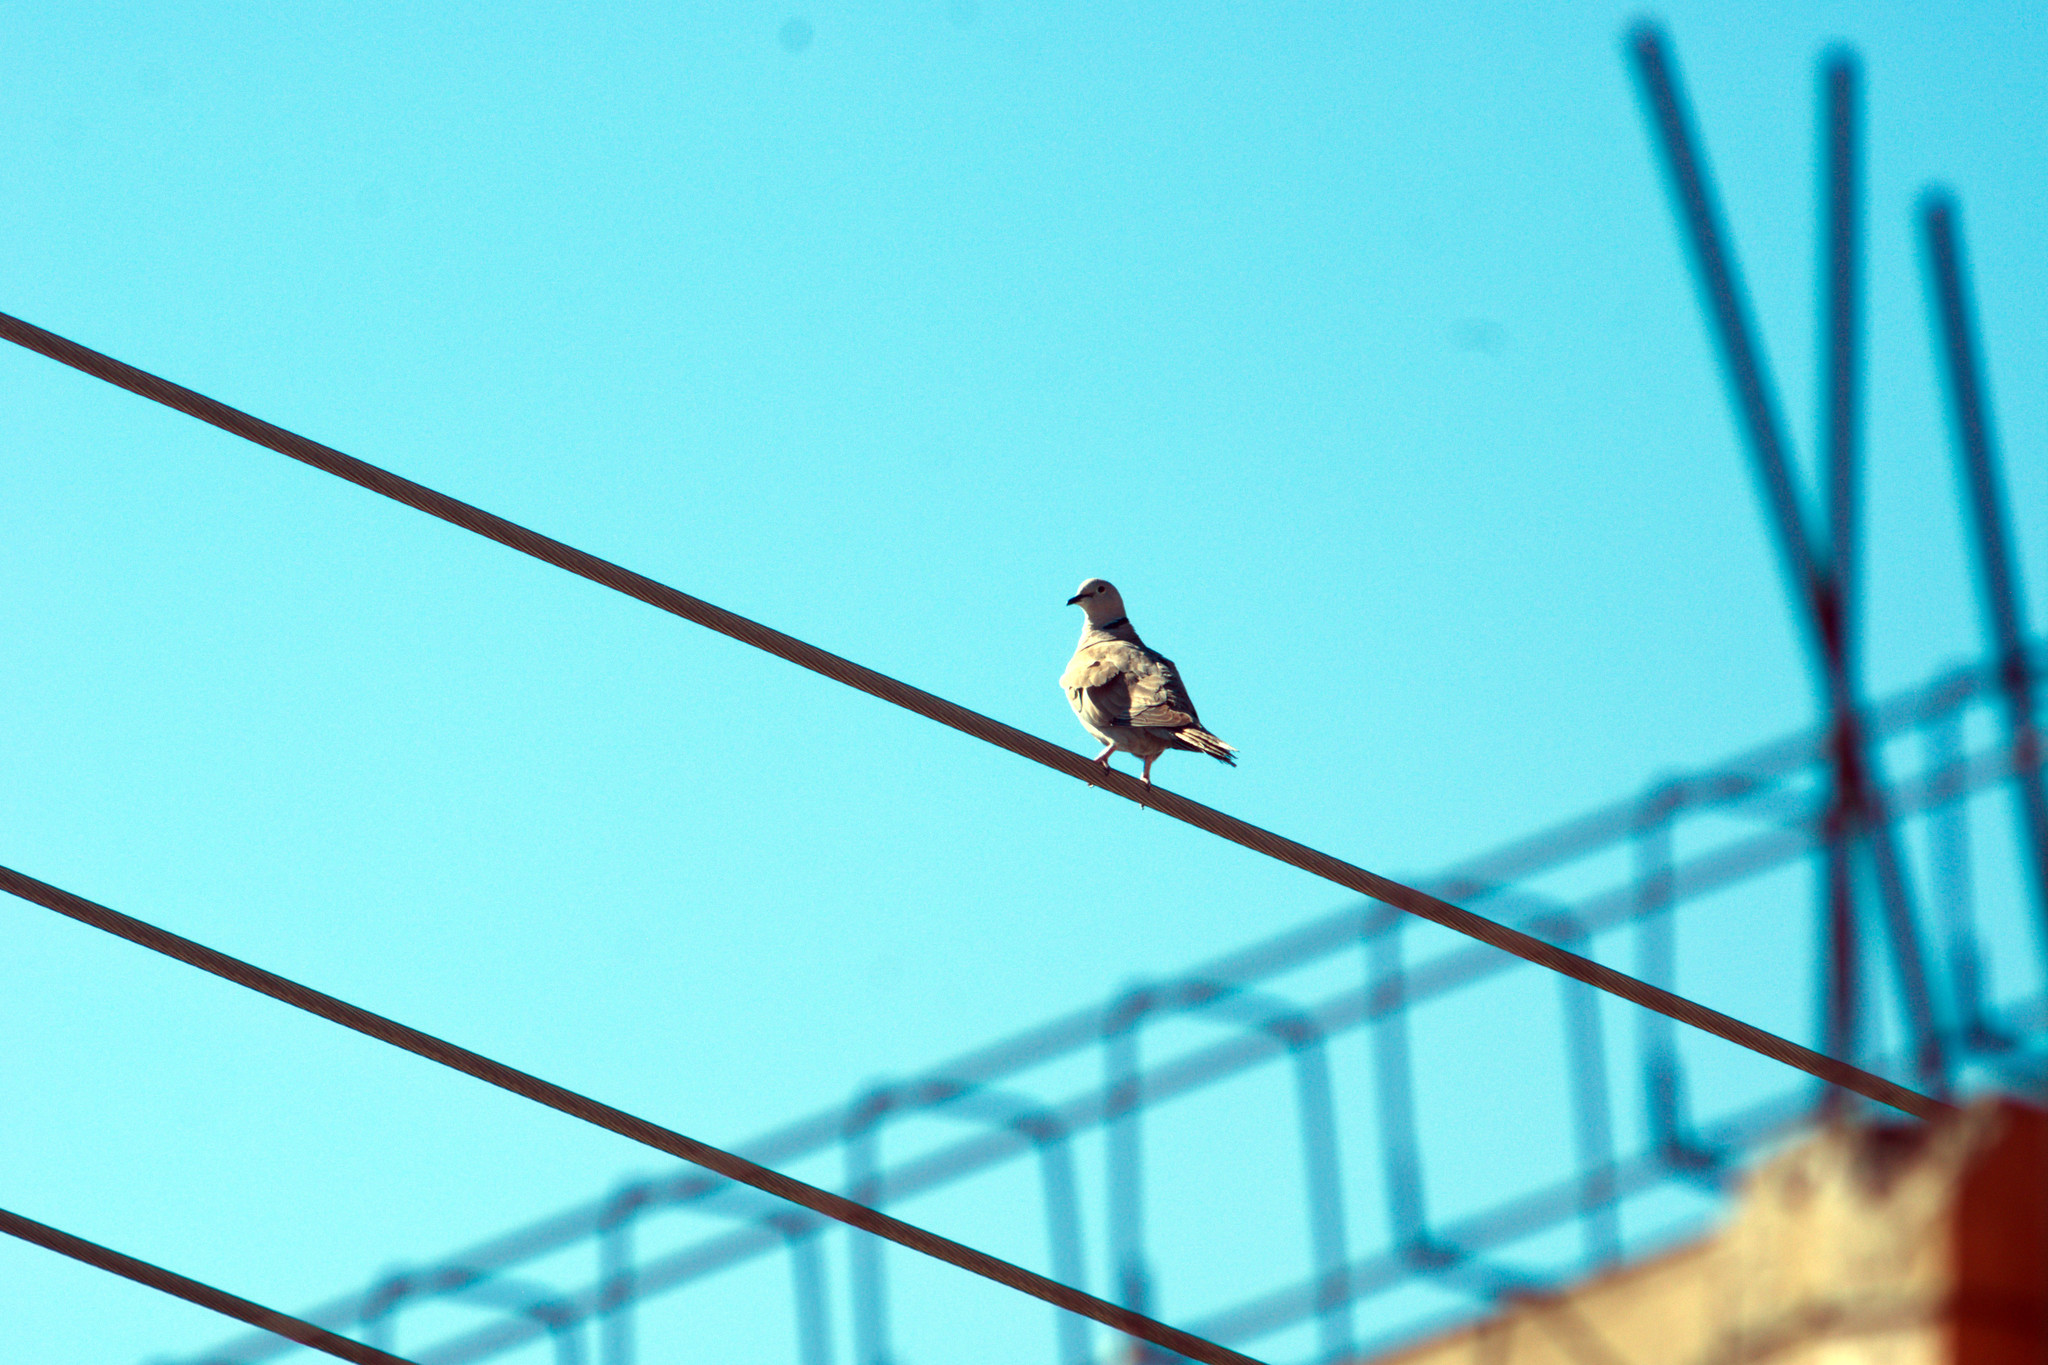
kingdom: Animalia
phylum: Chordata
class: Aves
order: Columbiformes
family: Columbidae
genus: Streptopelia
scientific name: Streptopelia decaocto
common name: Eurasian collared dove
